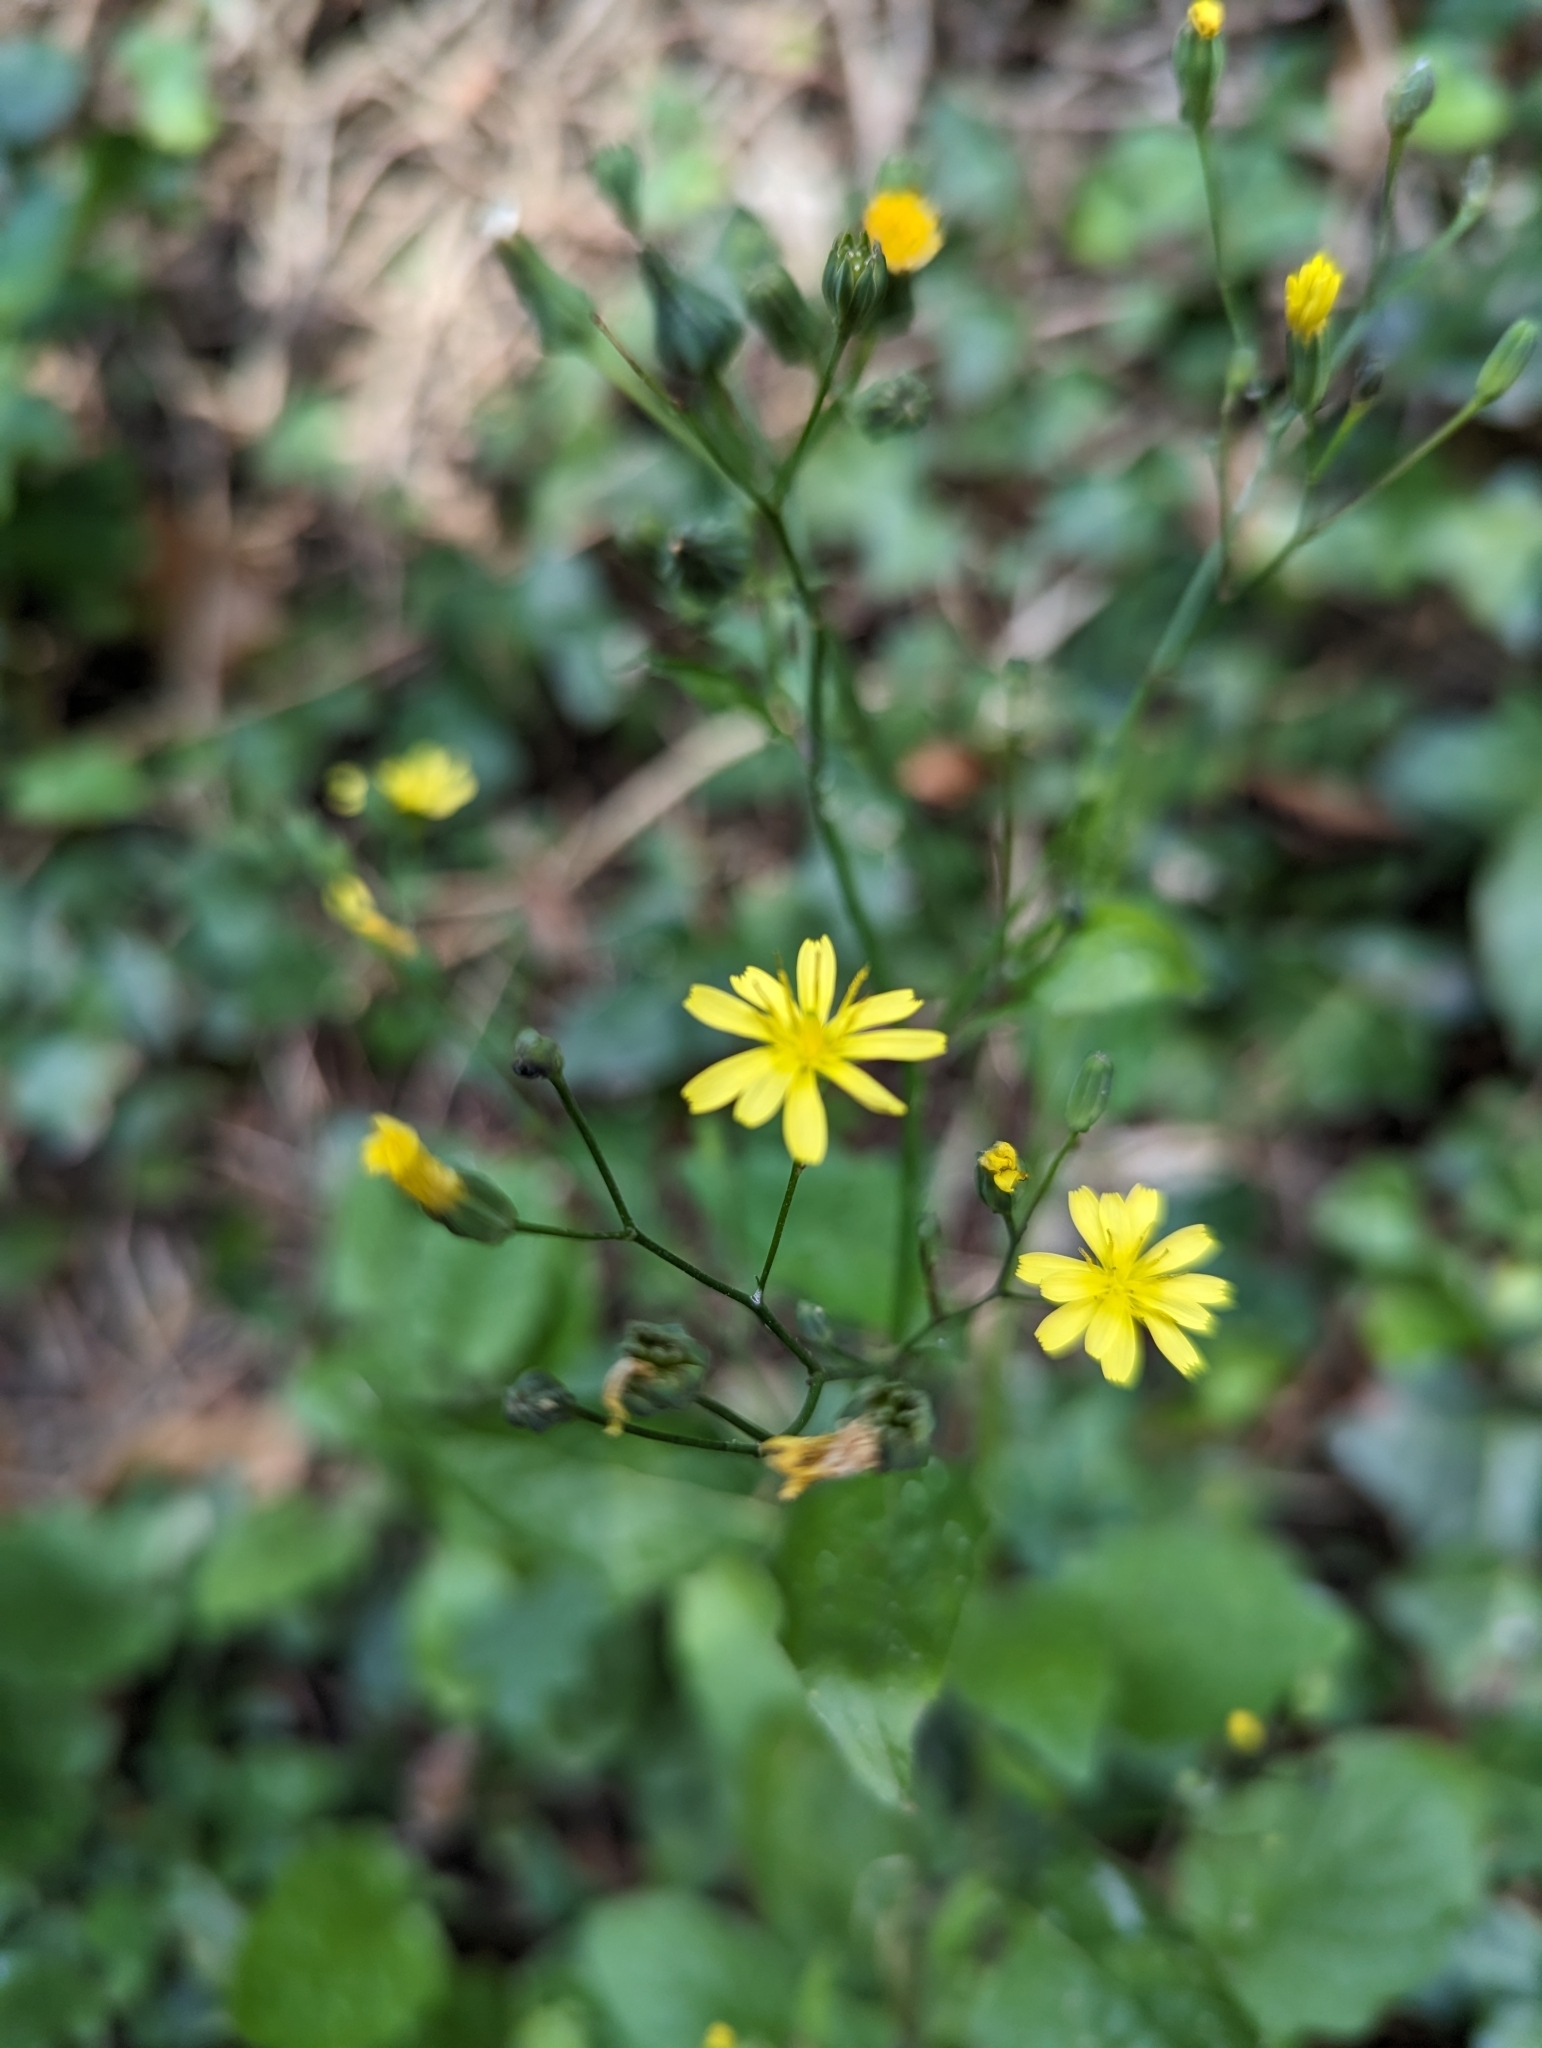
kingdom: Plantae
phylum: Tracheophyta
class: Magnoliopsida
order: Asterales
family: Asteraceae
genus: Lapsana
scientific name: Lapsana communis
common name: Nipplewort
